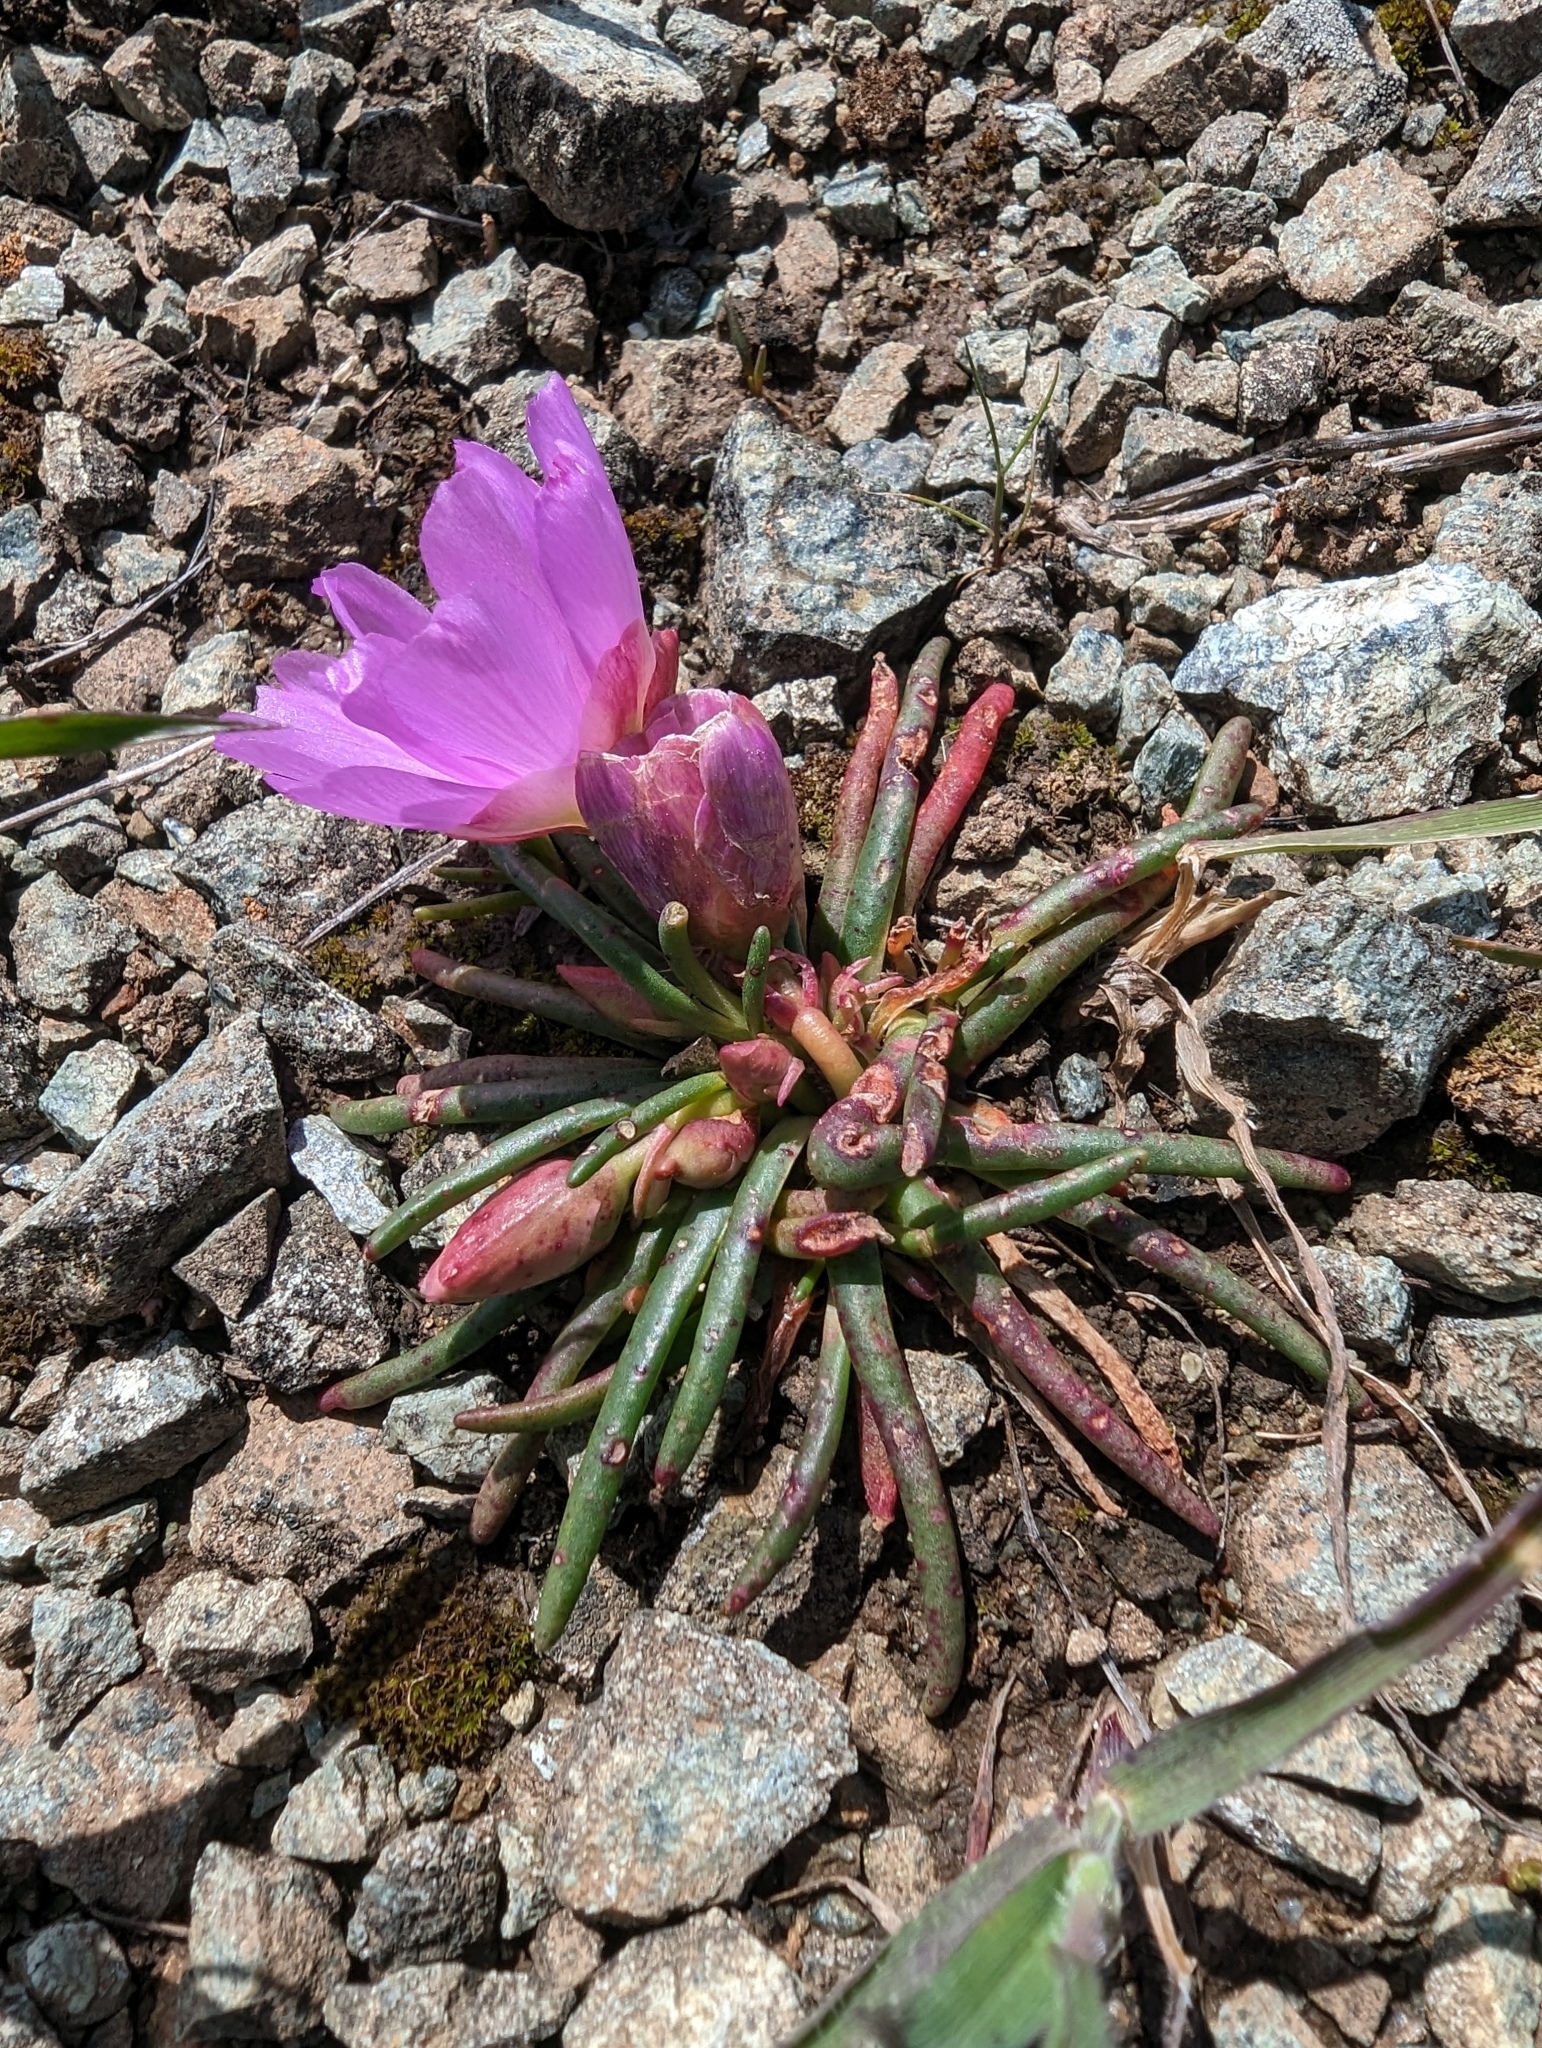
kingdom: Plantae
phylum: Tracheophyta
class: Magnoliopsida
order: Caryophyllales
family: Montiaceae
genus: Lewisia
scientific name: Lewisia rediviva
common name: Bitter-root
